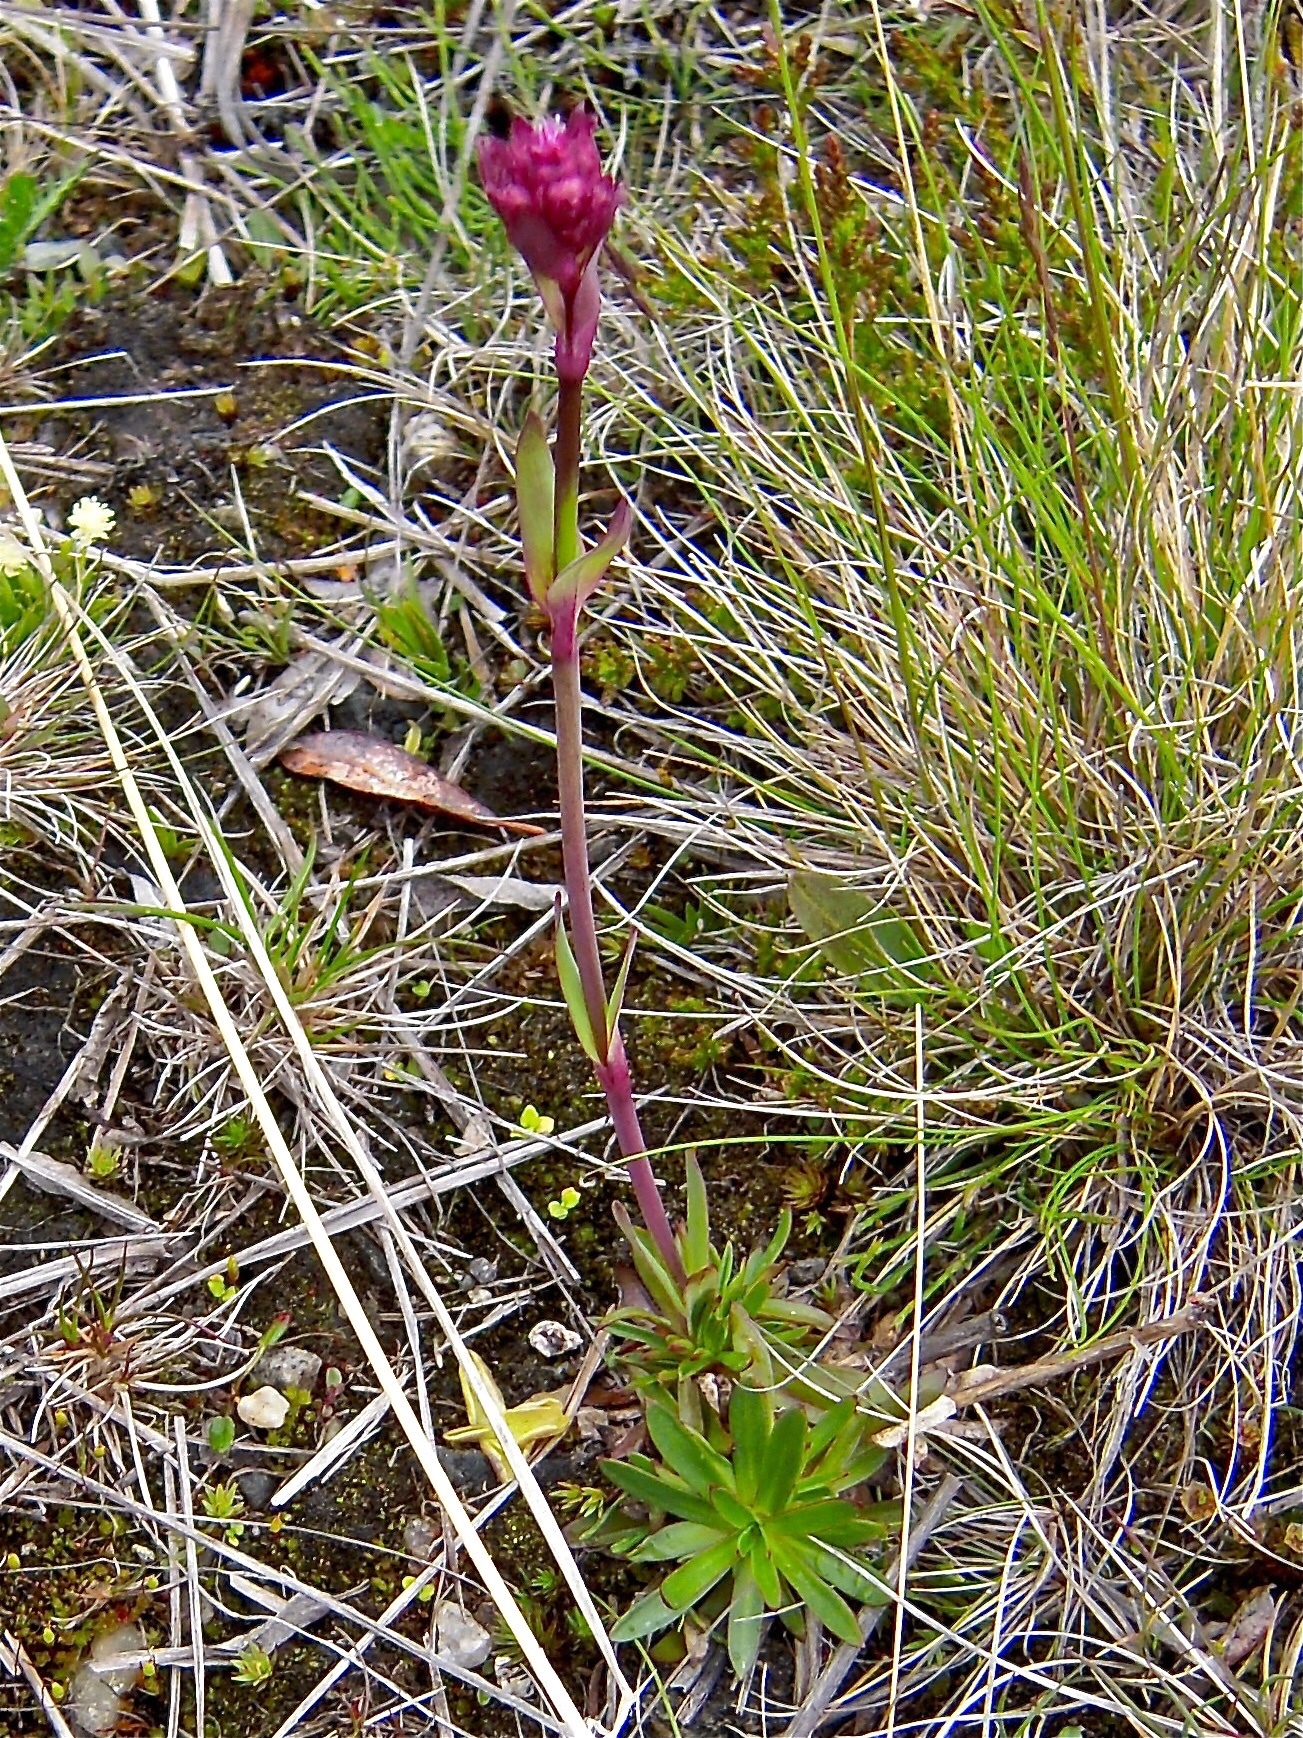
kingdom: Plantae
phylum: Tracheophyta
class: Magnoliopsida
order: Caryophyllales
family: Caryophyllaceae
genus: Viscaria
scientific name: Viscaria alpina
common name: Alpine campion
